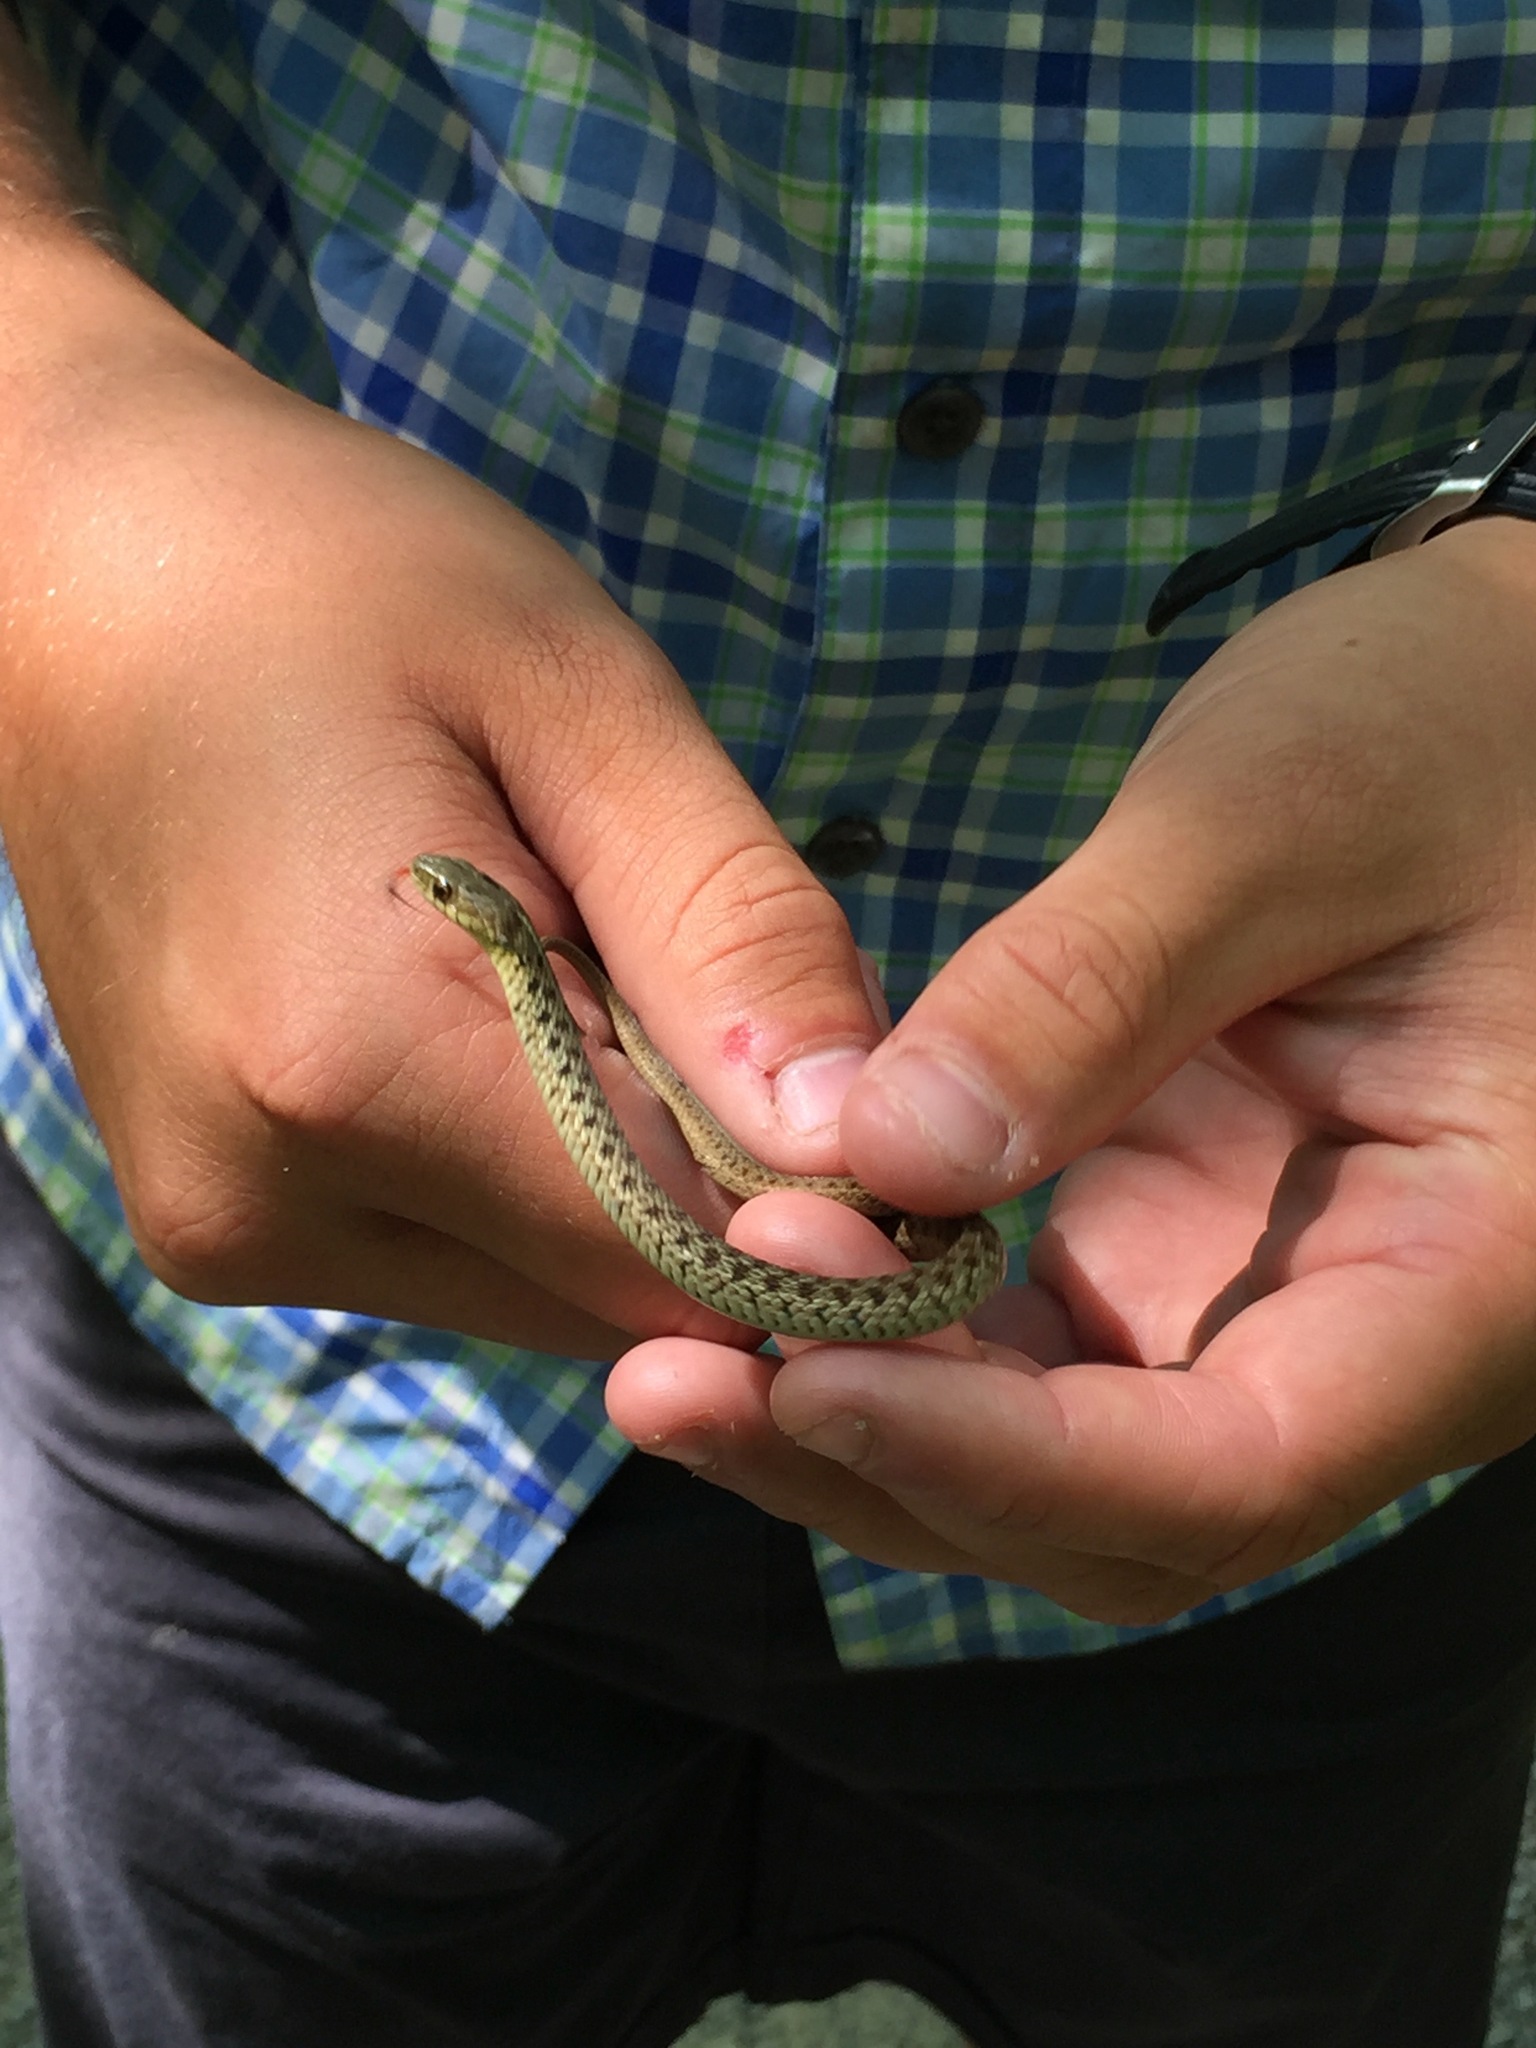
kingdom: Animalia
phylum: Chordata
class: Squamata
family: Colubridae
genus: Thamnophis
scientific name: Thamnophis sirtalis
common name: Common garter snake
